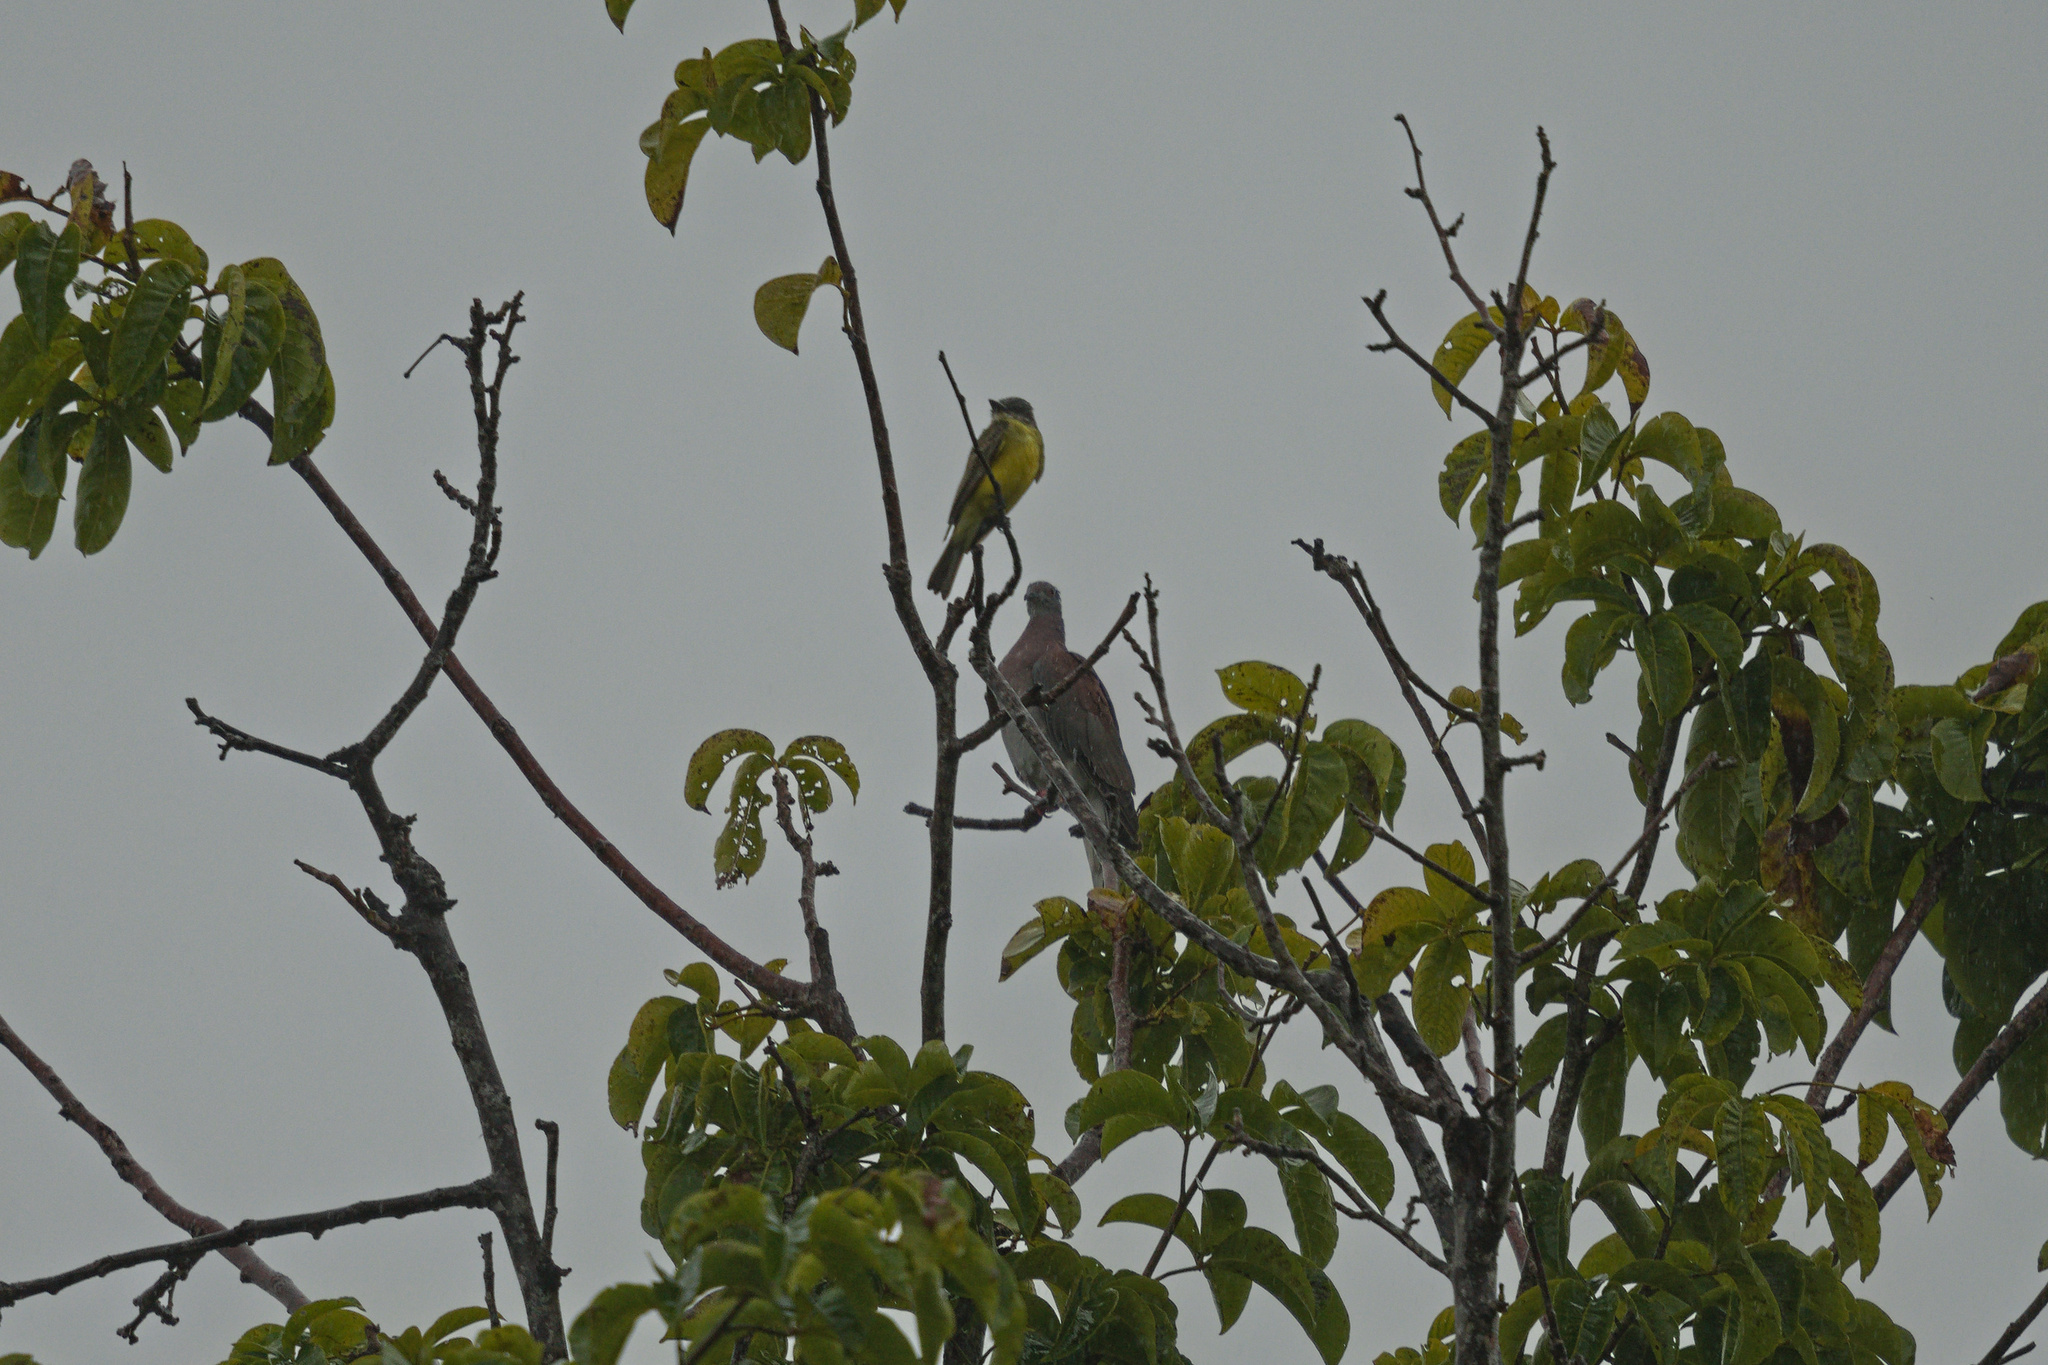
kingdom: Animalia
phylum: Chordata
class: Aves
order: Columbiformes
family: Columbidae
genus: Patagioenas
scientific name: Patagioenas cayennensis
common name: Pale-vented pigeon
